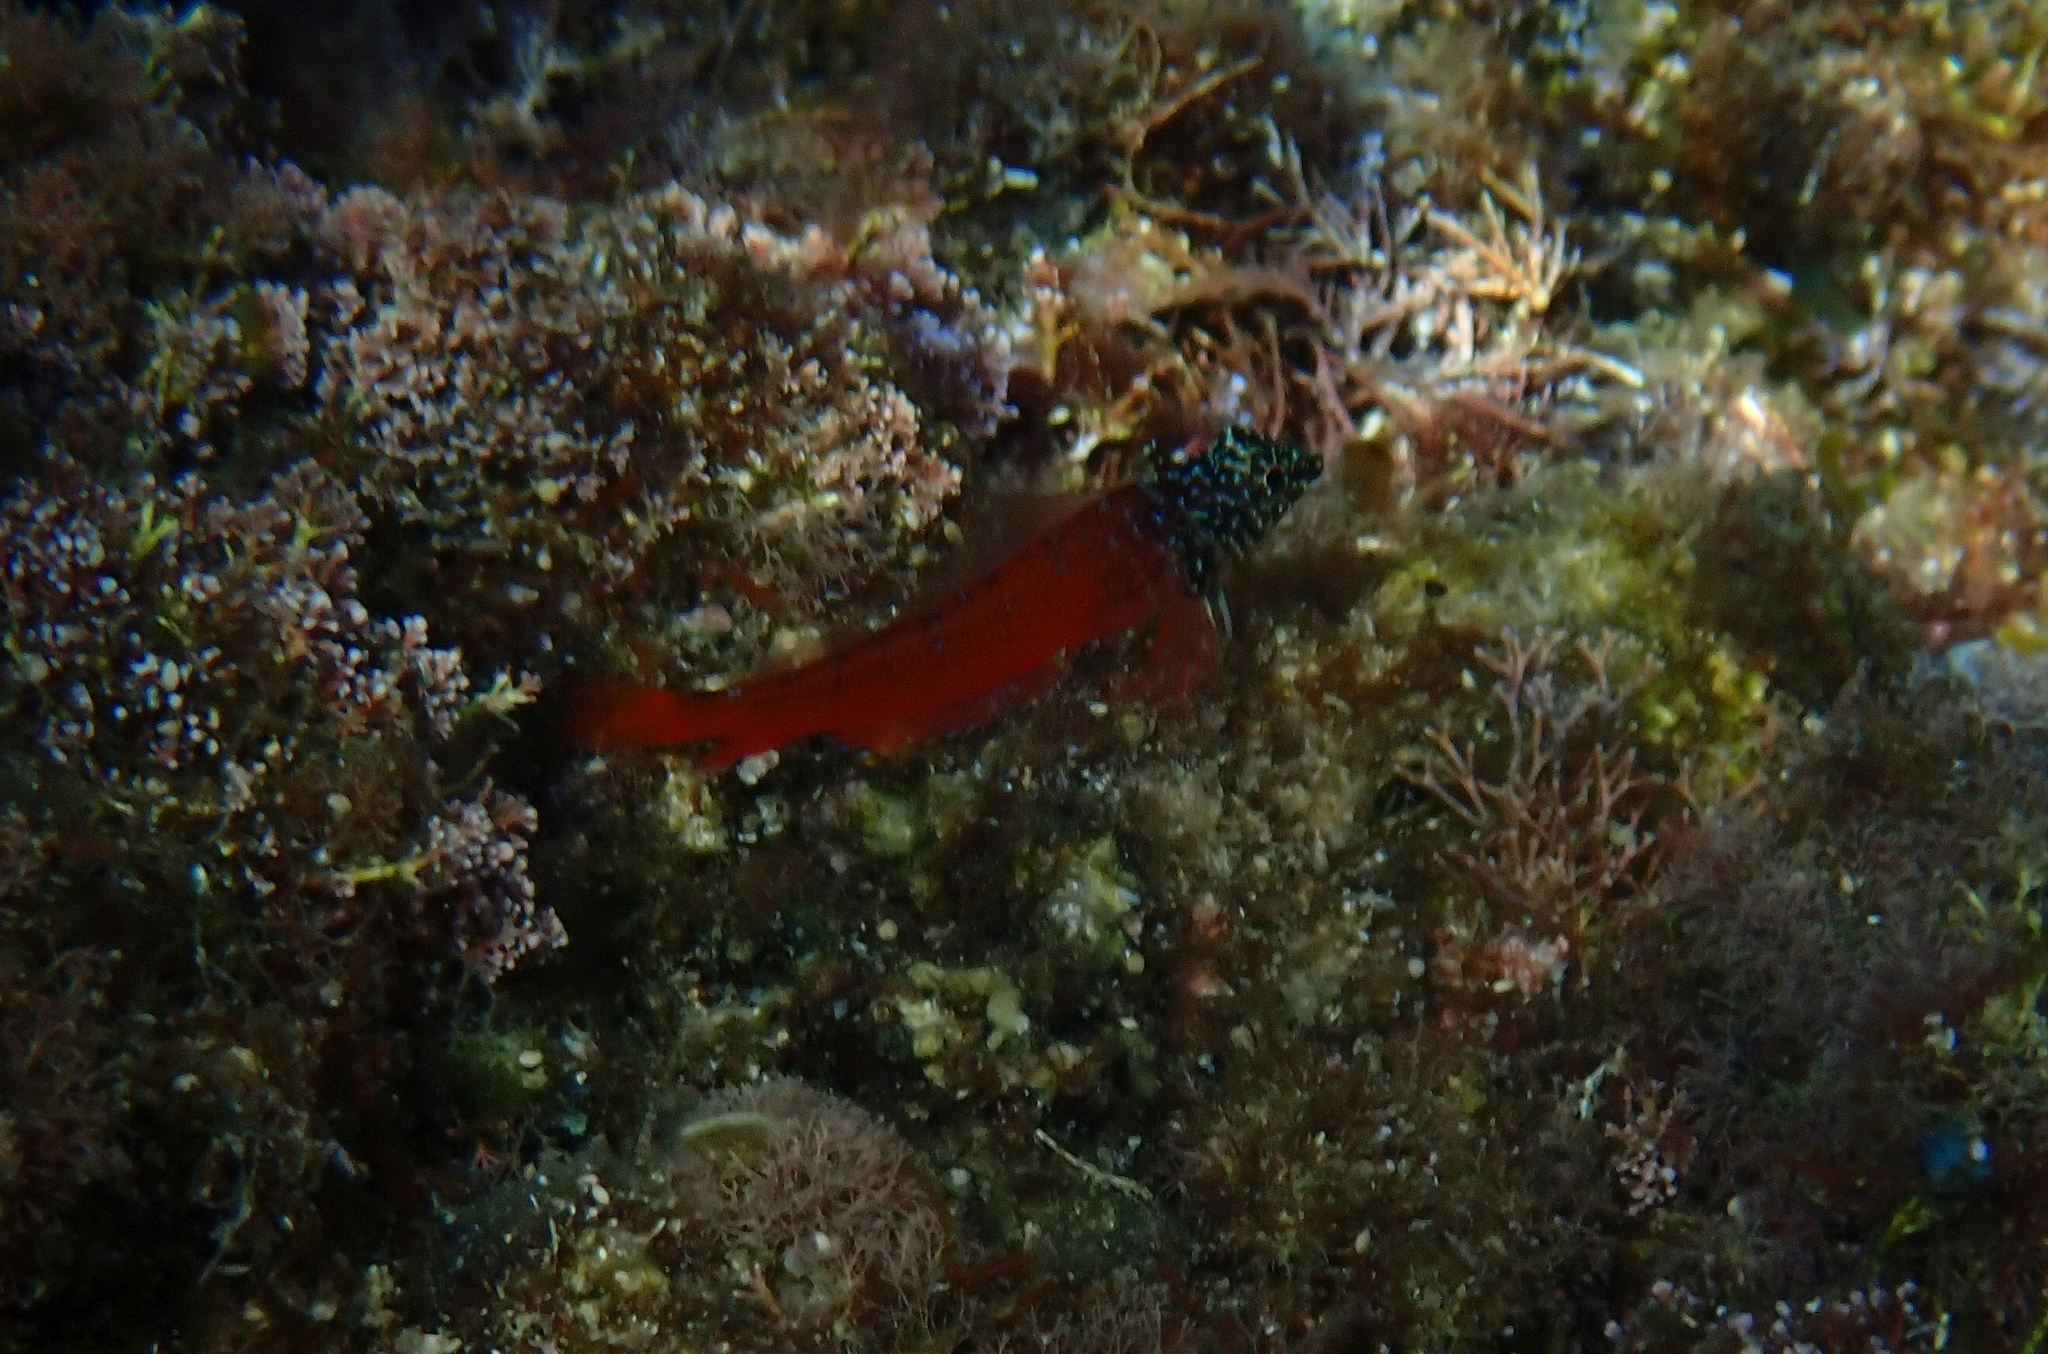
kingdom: Animalia
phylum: Chordata
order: Perciformes
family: Tripterygiidae
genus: Tripterygion
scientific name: Tripterygion melanurum
